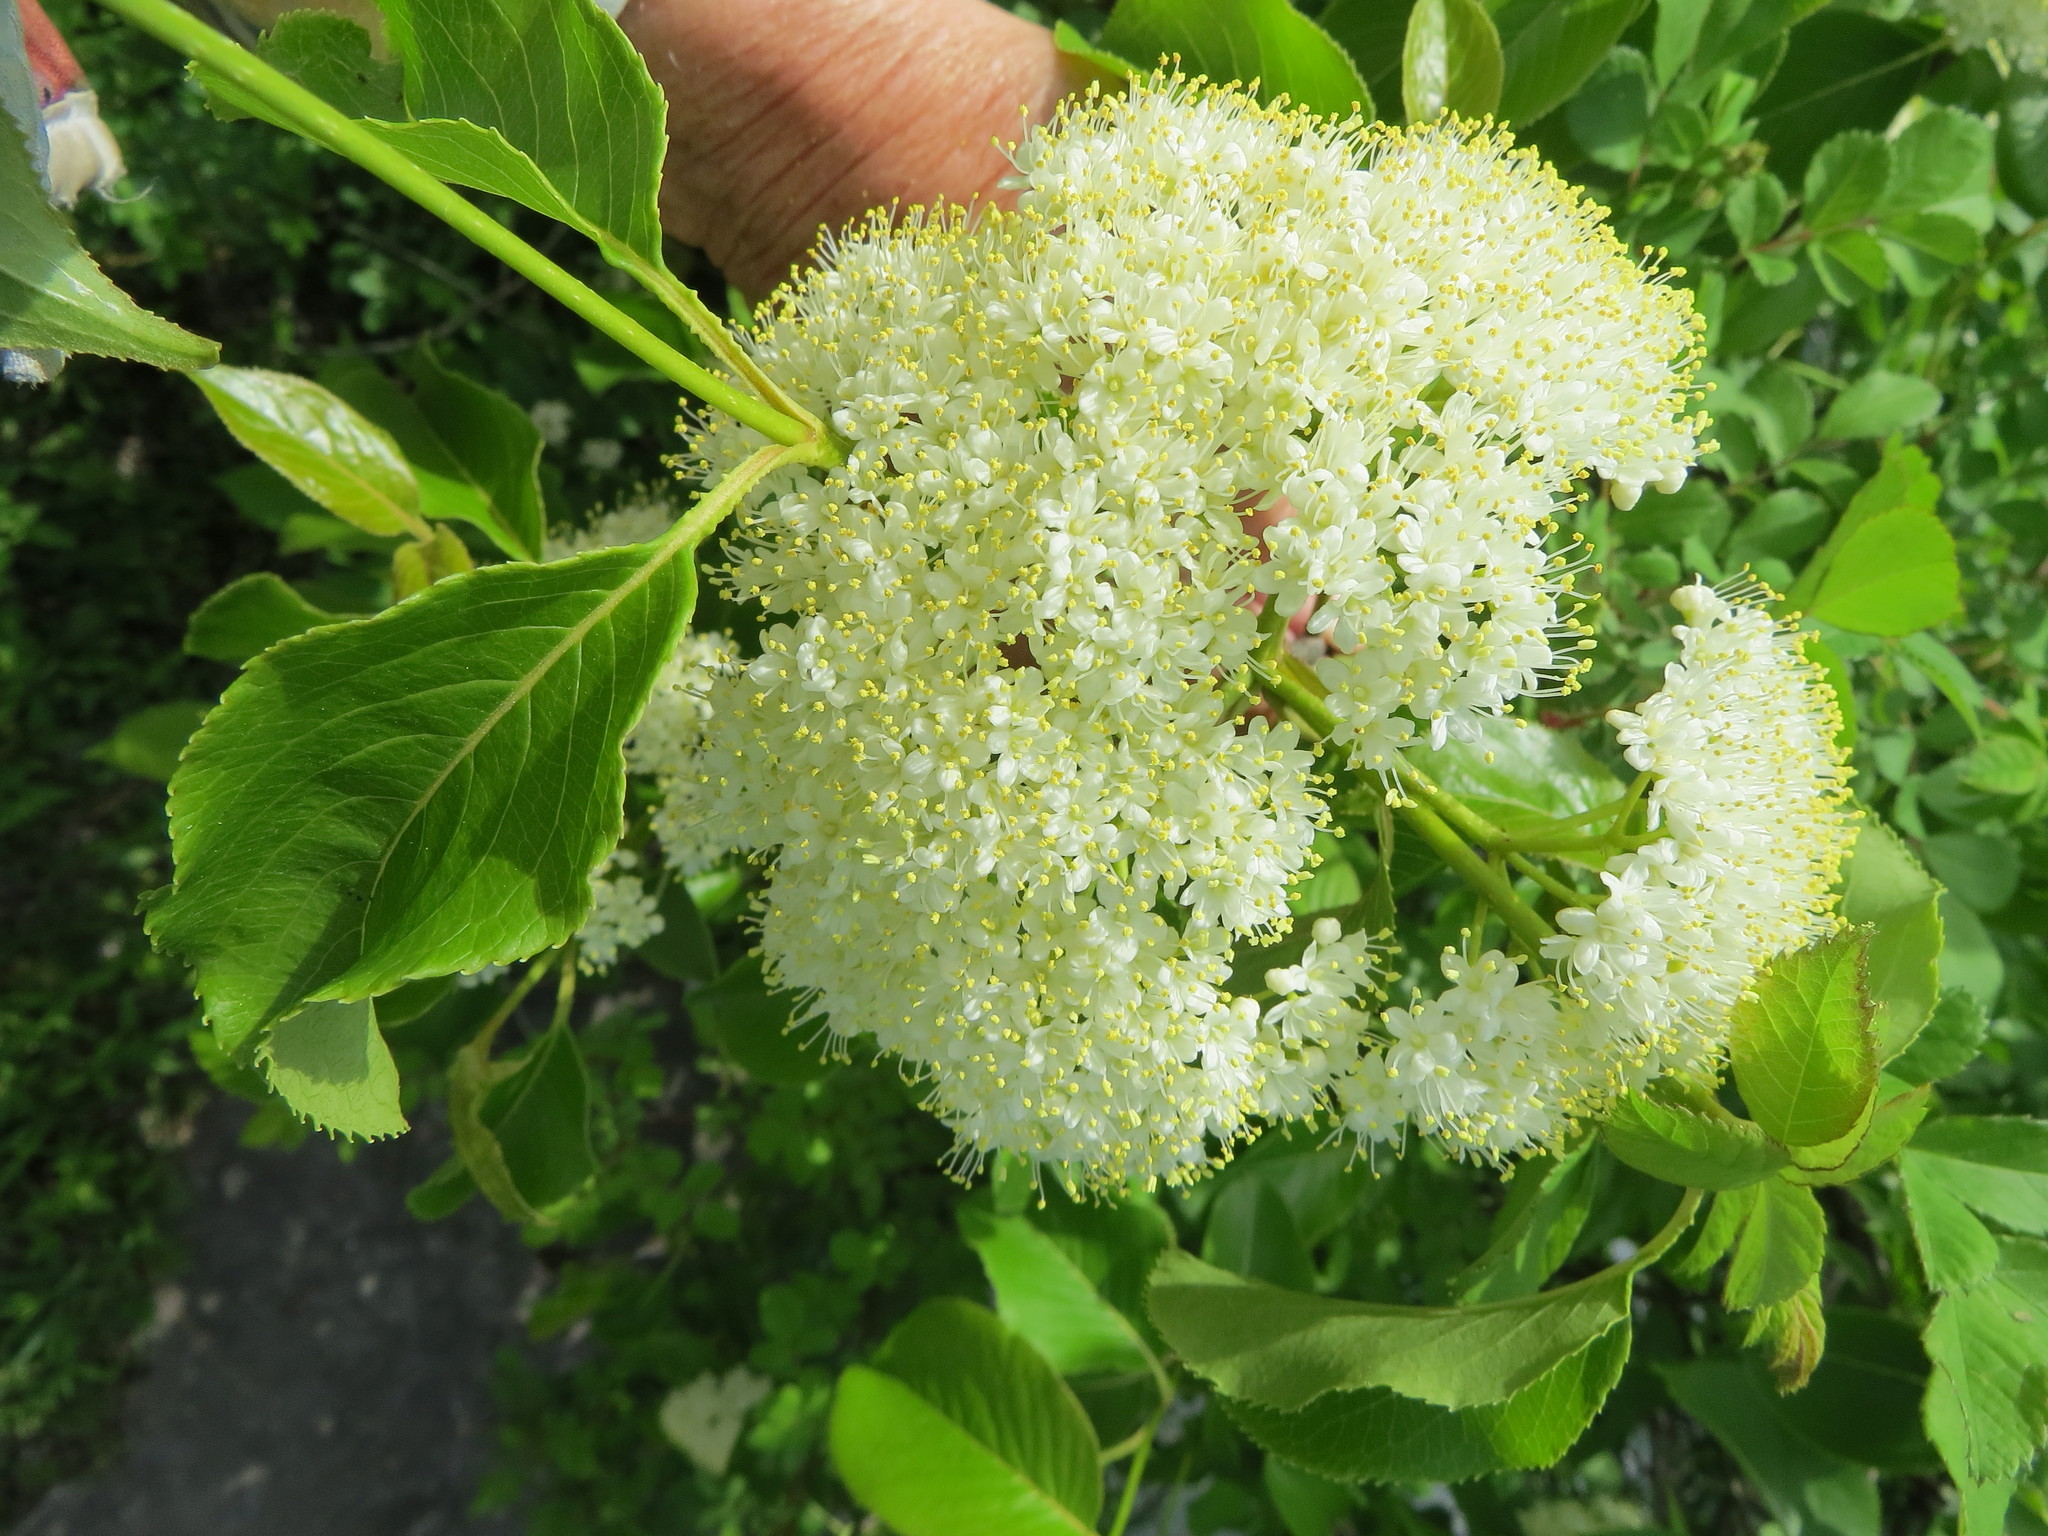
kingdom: Plantae
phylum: Tracheophyta
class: Magnoliopsida
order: Dipsacales
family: Viburnaceae
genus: Viburnum
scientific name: Viburnum lentago
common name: Black haw
